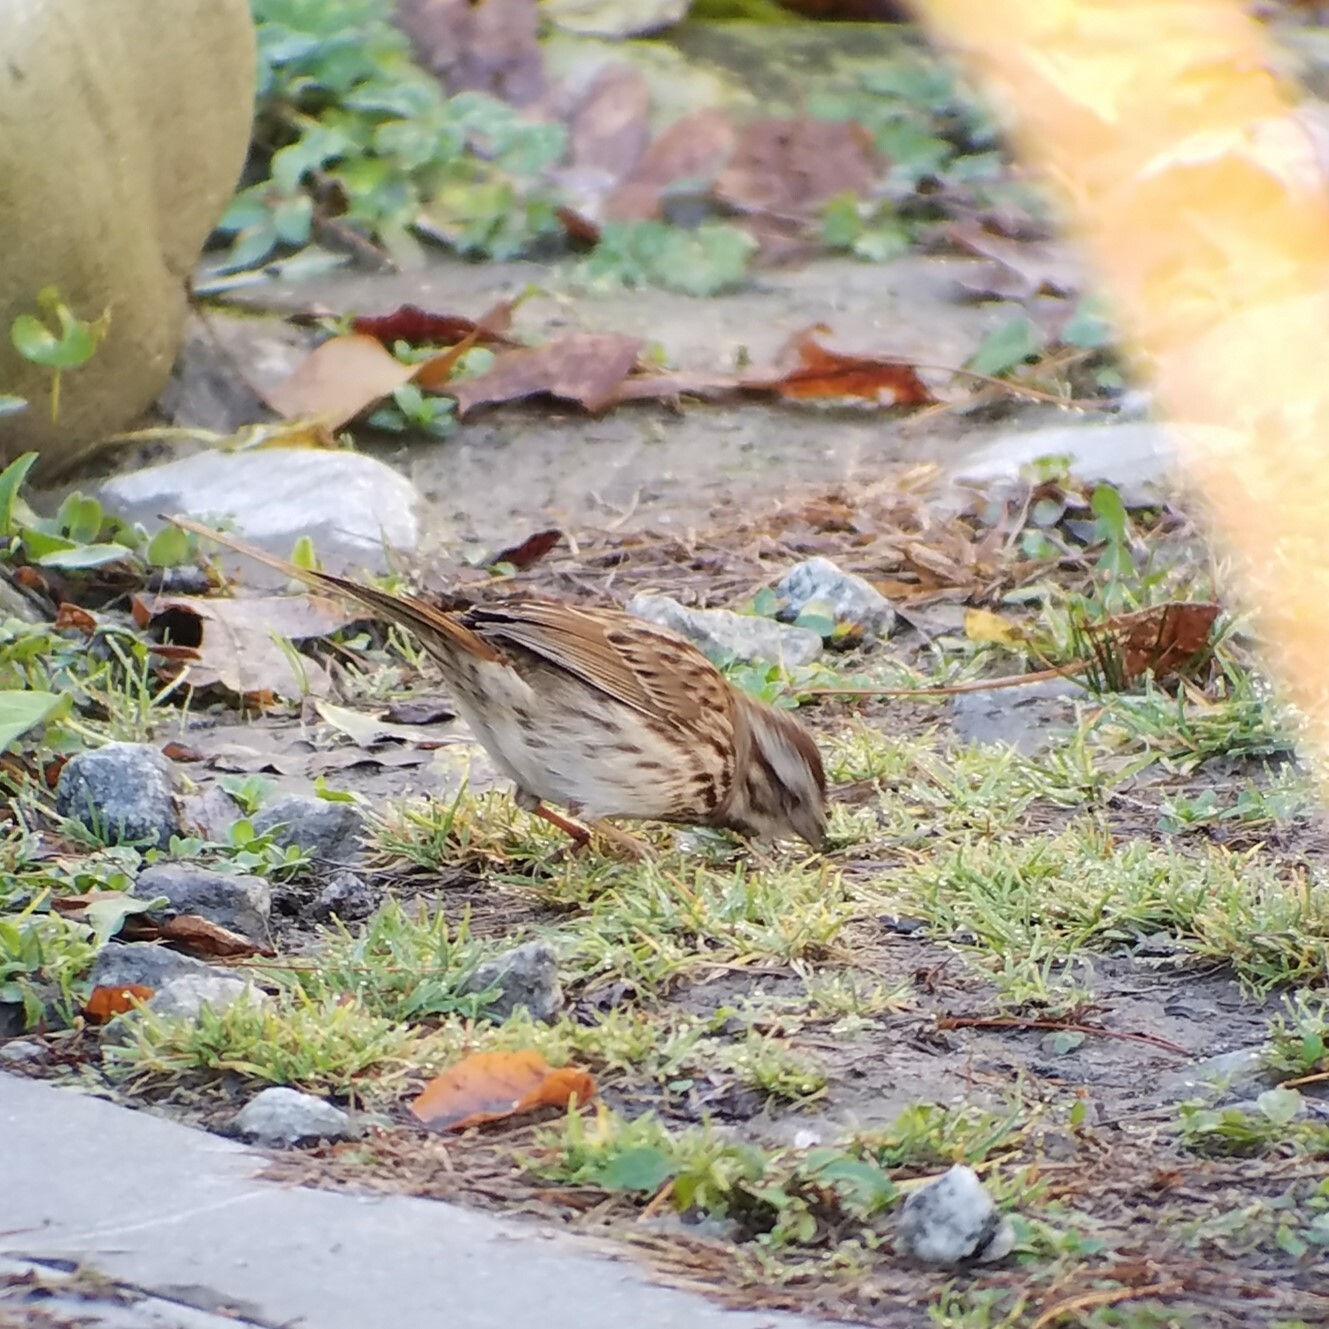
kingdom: Animalia
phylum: Chordata
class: Aves
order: Passeriformes
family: Passerellidae
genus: Melospiza
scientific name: Melospiza melodia
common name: Song sparrow
